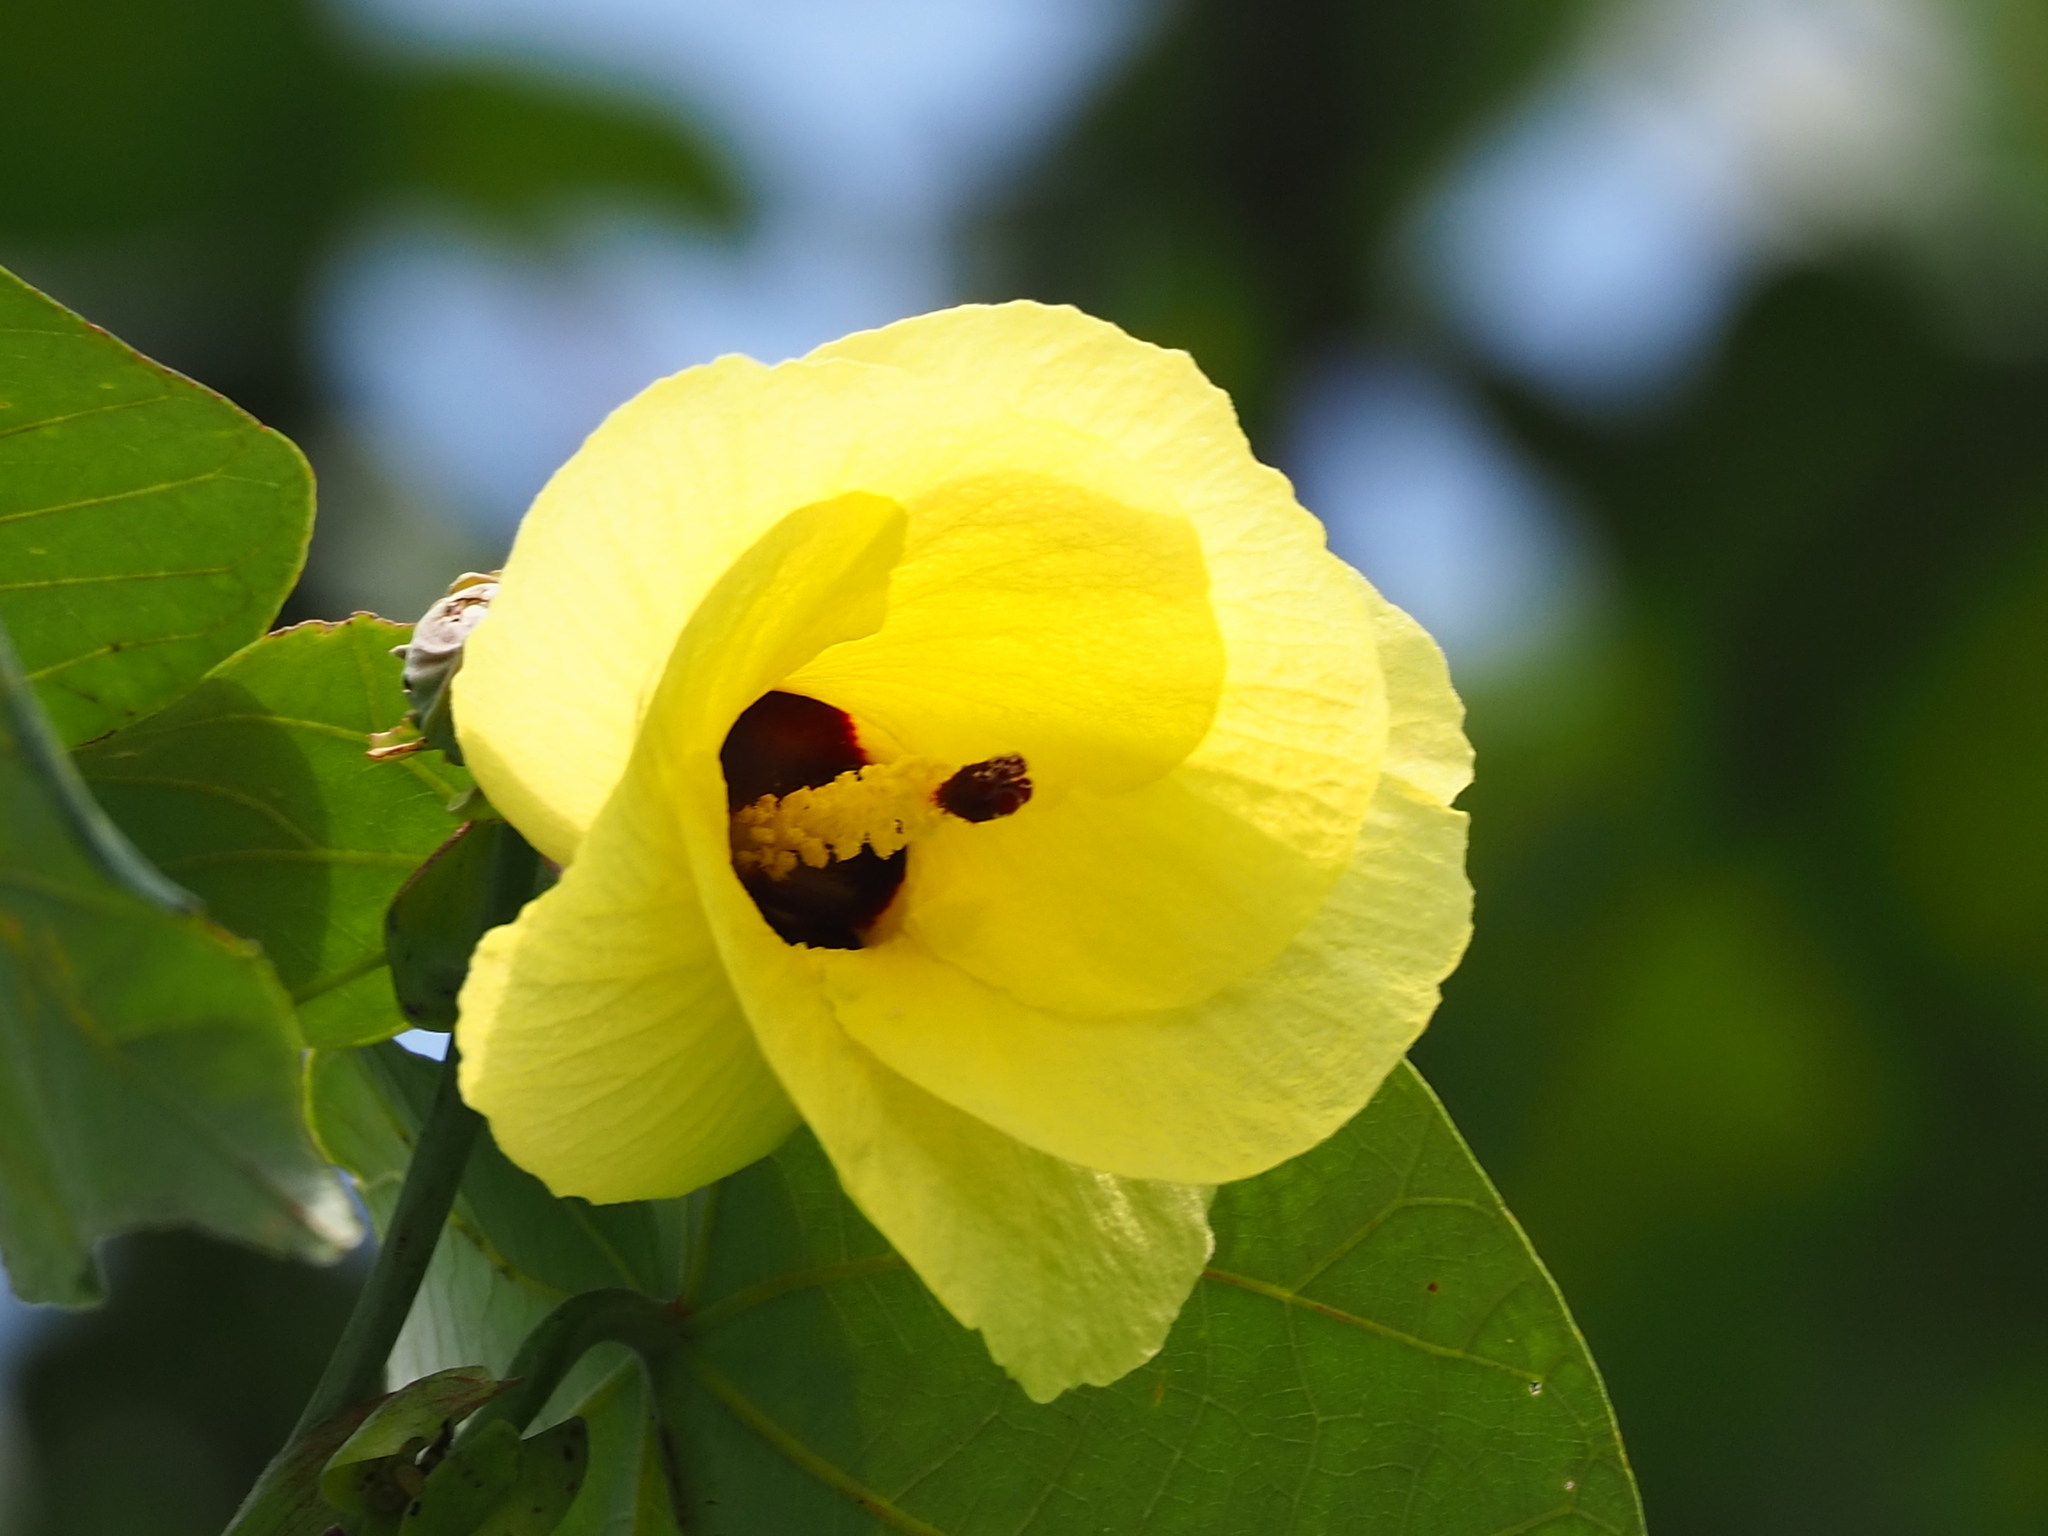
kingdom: Plantae
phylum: Tracheophyta
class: Magnoliopsida
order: Malvales
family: Malvaceae
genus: Talipariti
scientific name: Talipariti tiliaceum
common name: Sea hibiscus
